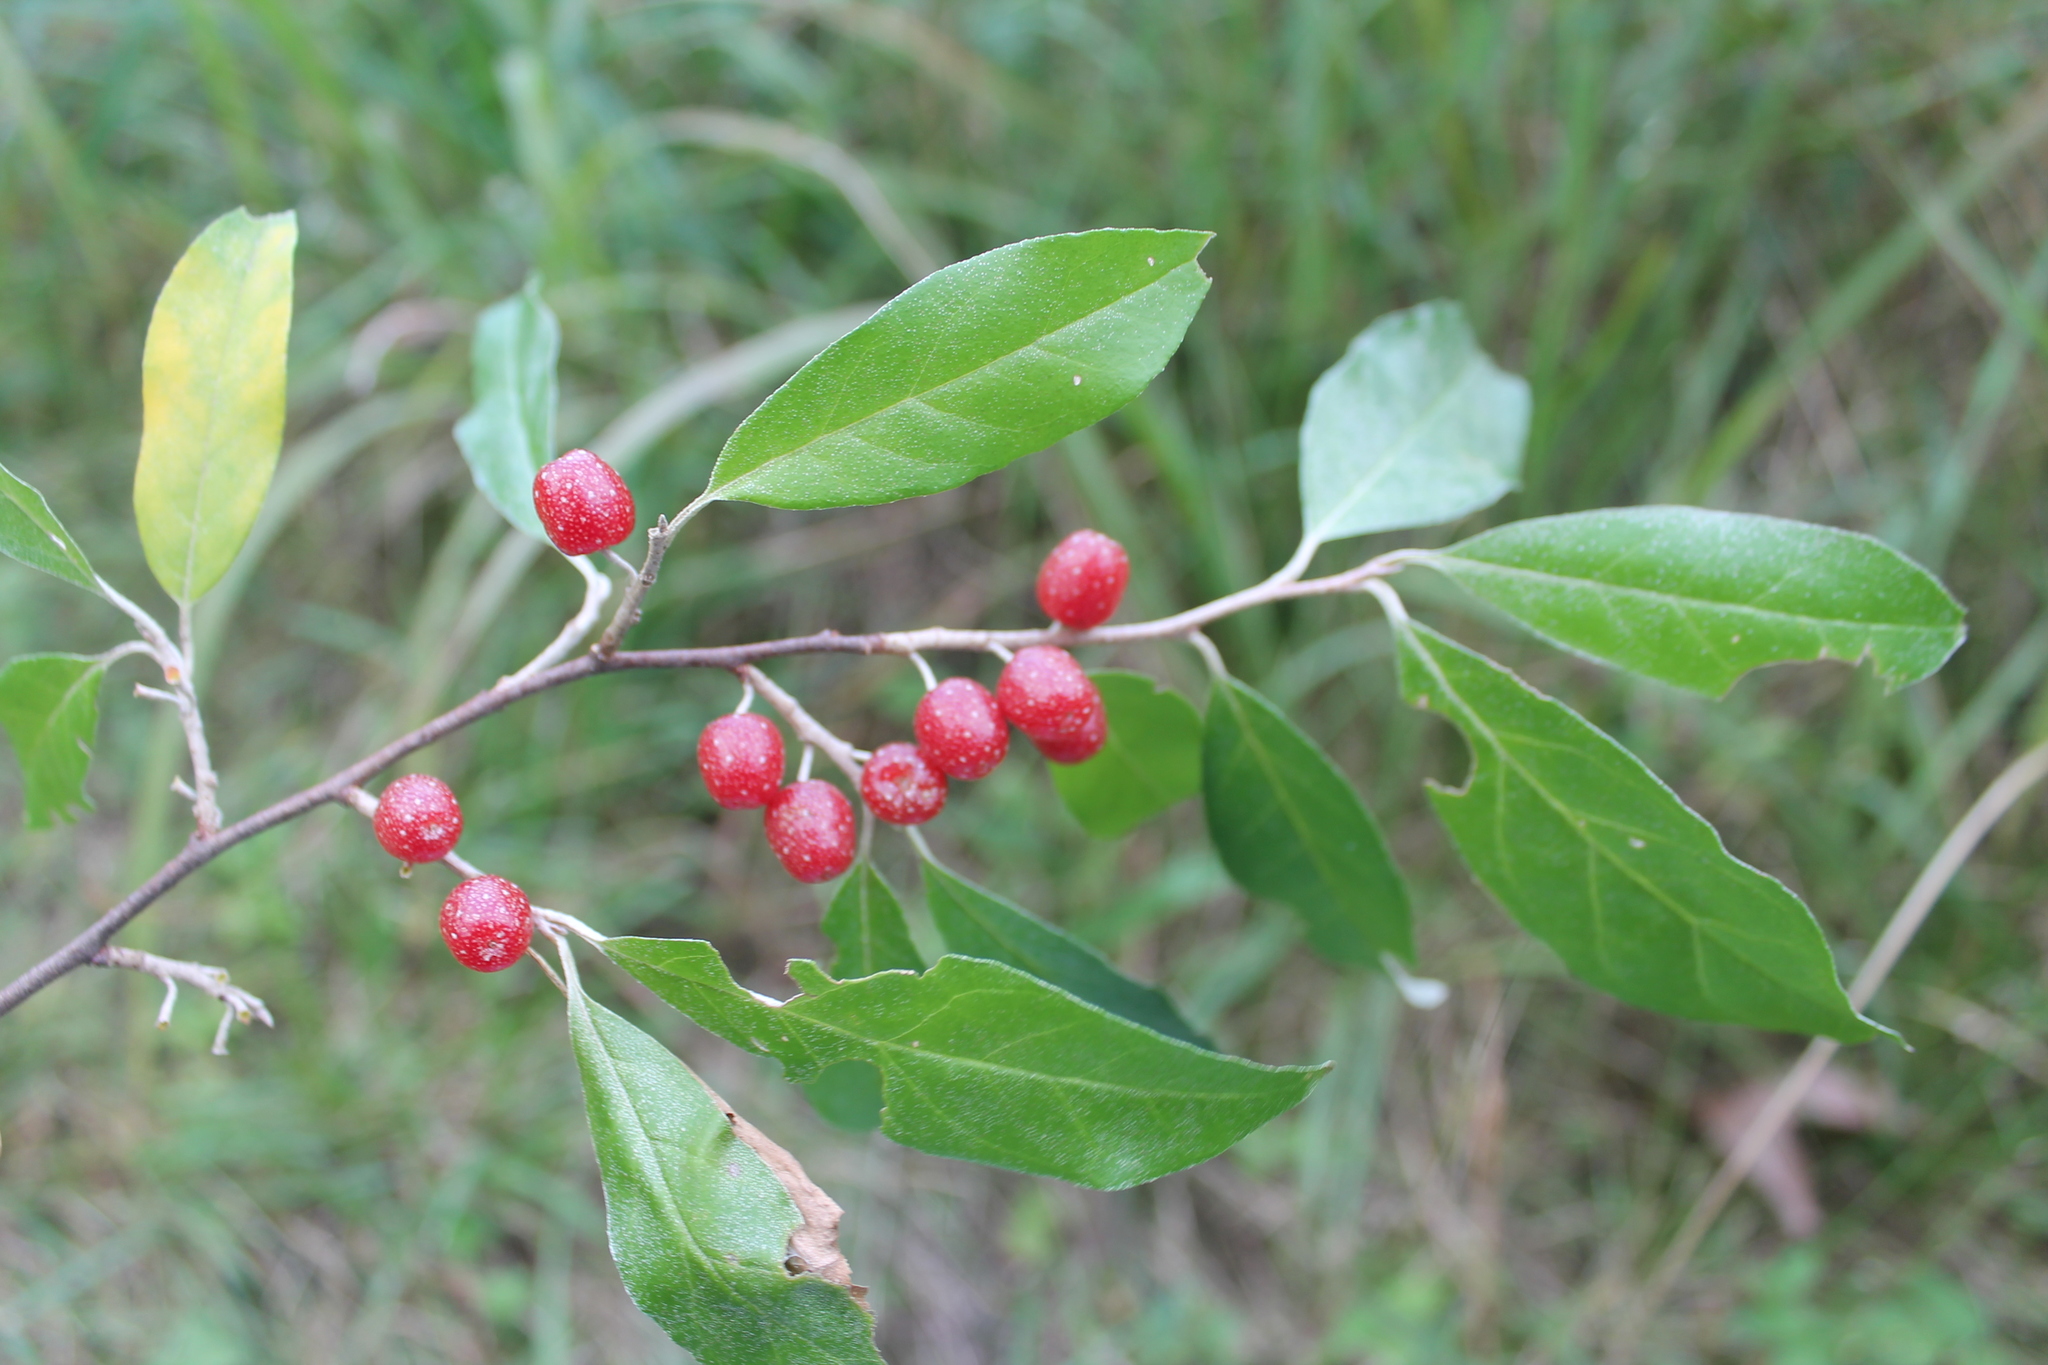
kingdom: Plantae
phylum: Tracheophyta
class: Magnoliopsida
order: Rosales
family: Elaeagnaceae
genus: Elaeagnus
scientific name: Elaeagnus umbellata
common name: Autumn olive
